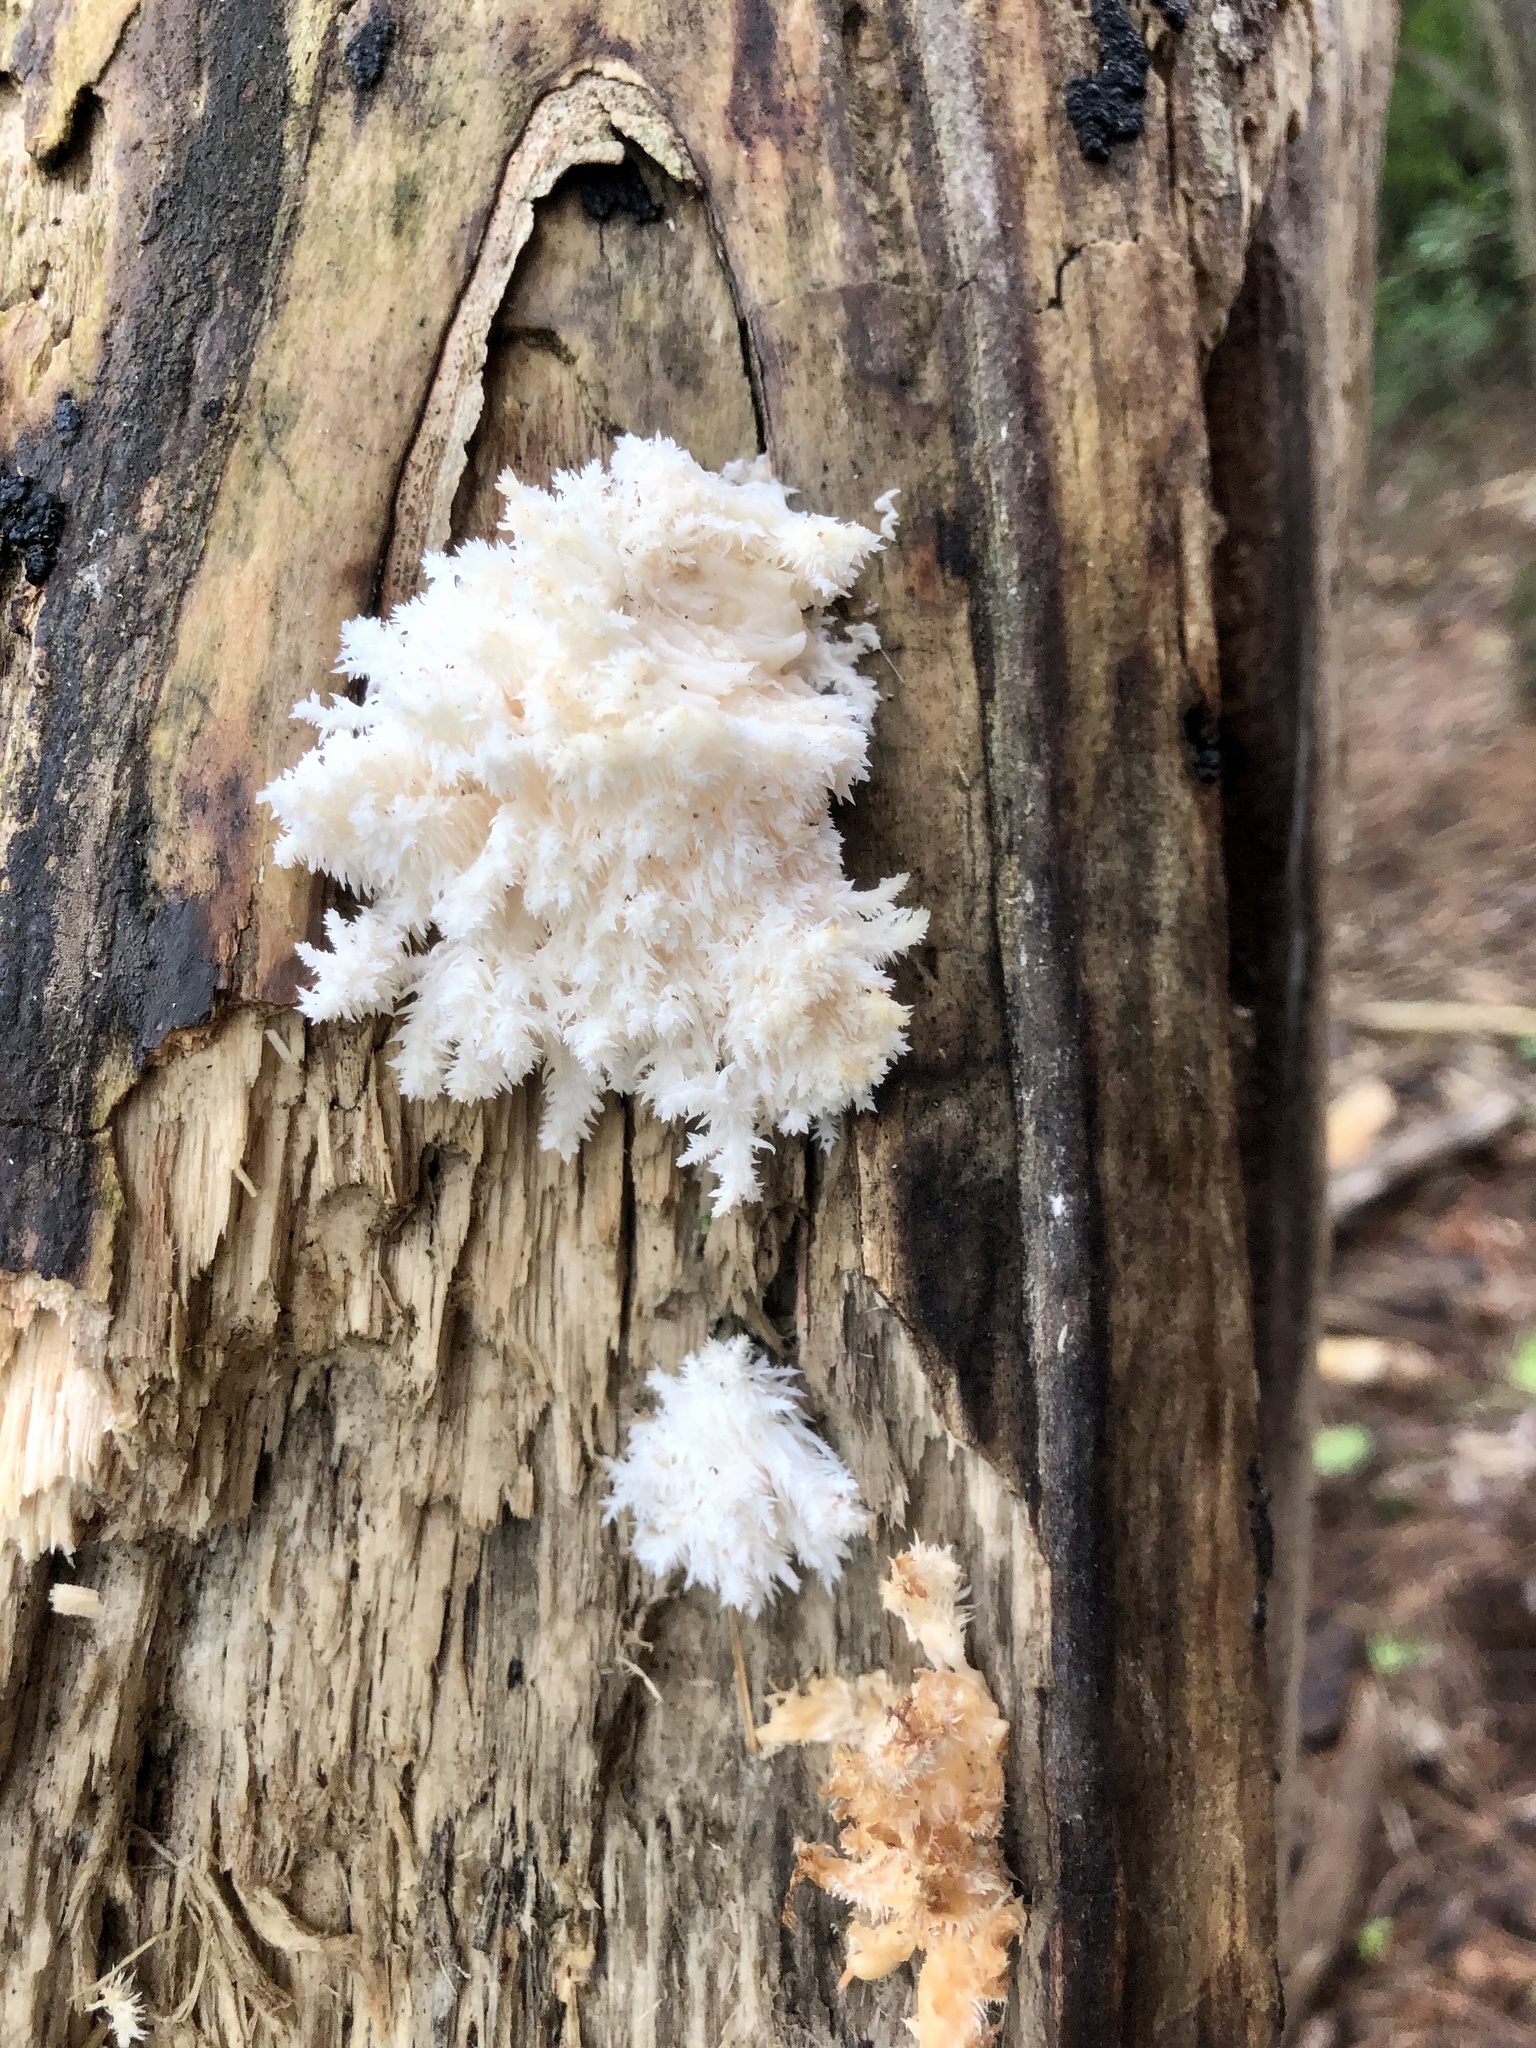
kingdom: Fungi
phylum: Basidiomycota
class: Agaricomycetes
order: Russulales
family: Hericiaceae
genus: Hericium
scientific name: Hericium coralloides
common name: Coral tooth
